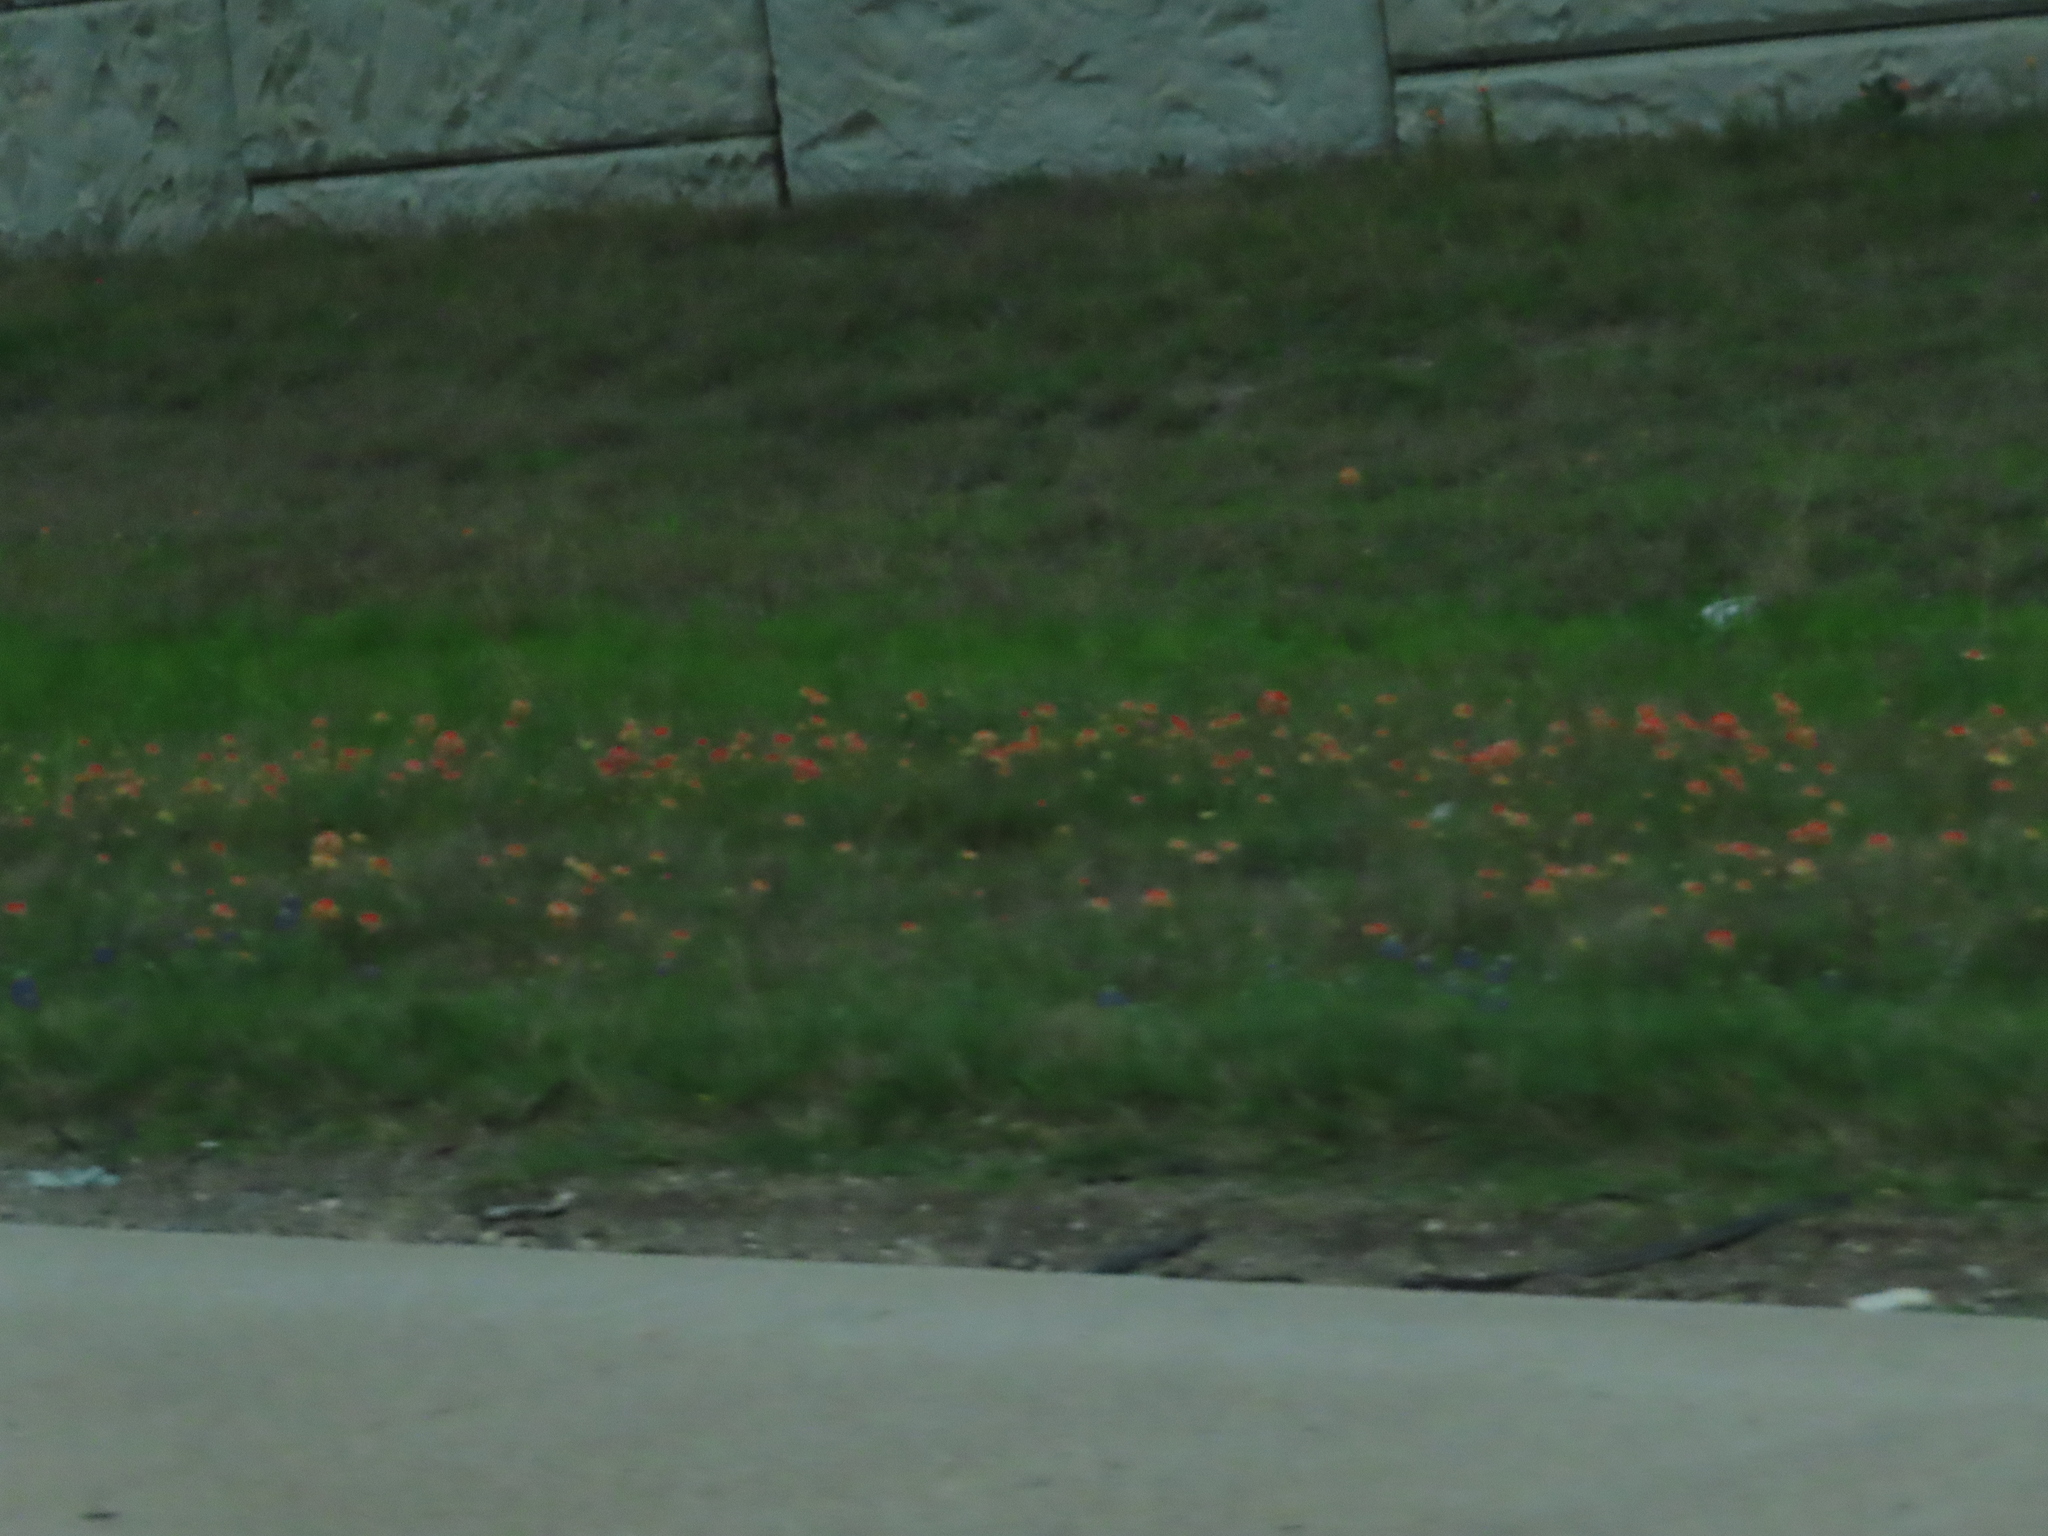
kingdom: Plantae
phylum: Tracheophyta
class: Magnoliopsida
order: Lamiales
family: Orobanchaceae
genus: Castilleja
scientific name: Castilleja indivisa
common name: Texas paintbrush
